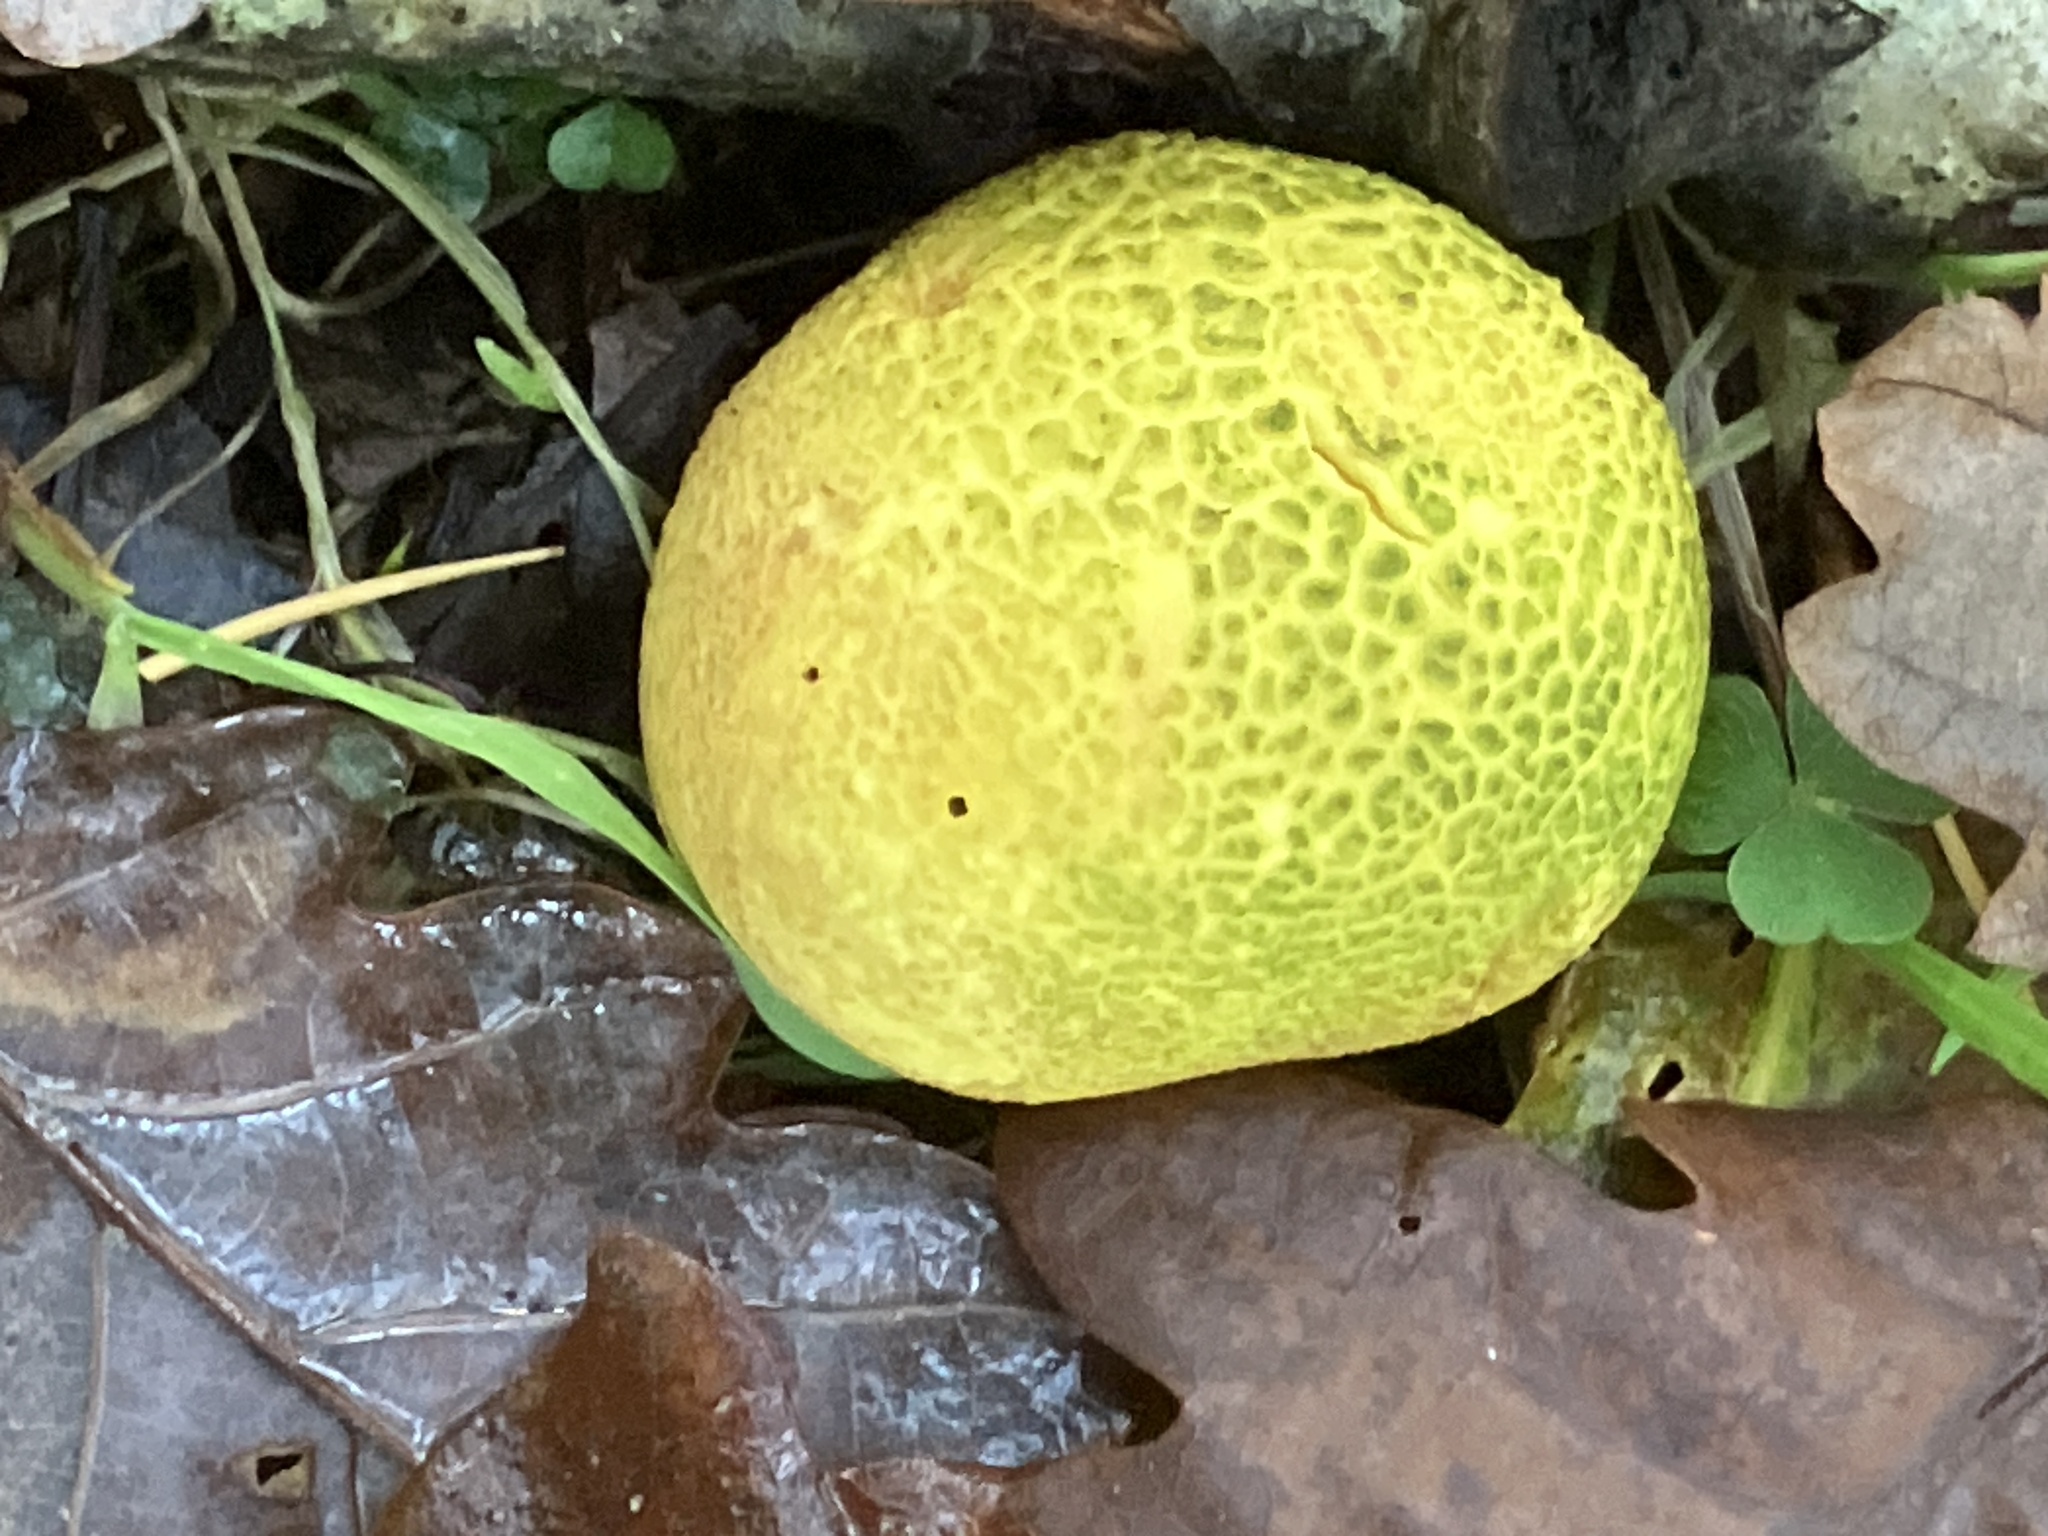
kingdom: Fungi
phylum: Basidiomycota
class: Agaricomycetes
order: Boletales
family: Sclerodermataceae
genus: Scleroderma
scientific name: Scleroderma citrinum
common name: Common earthball
